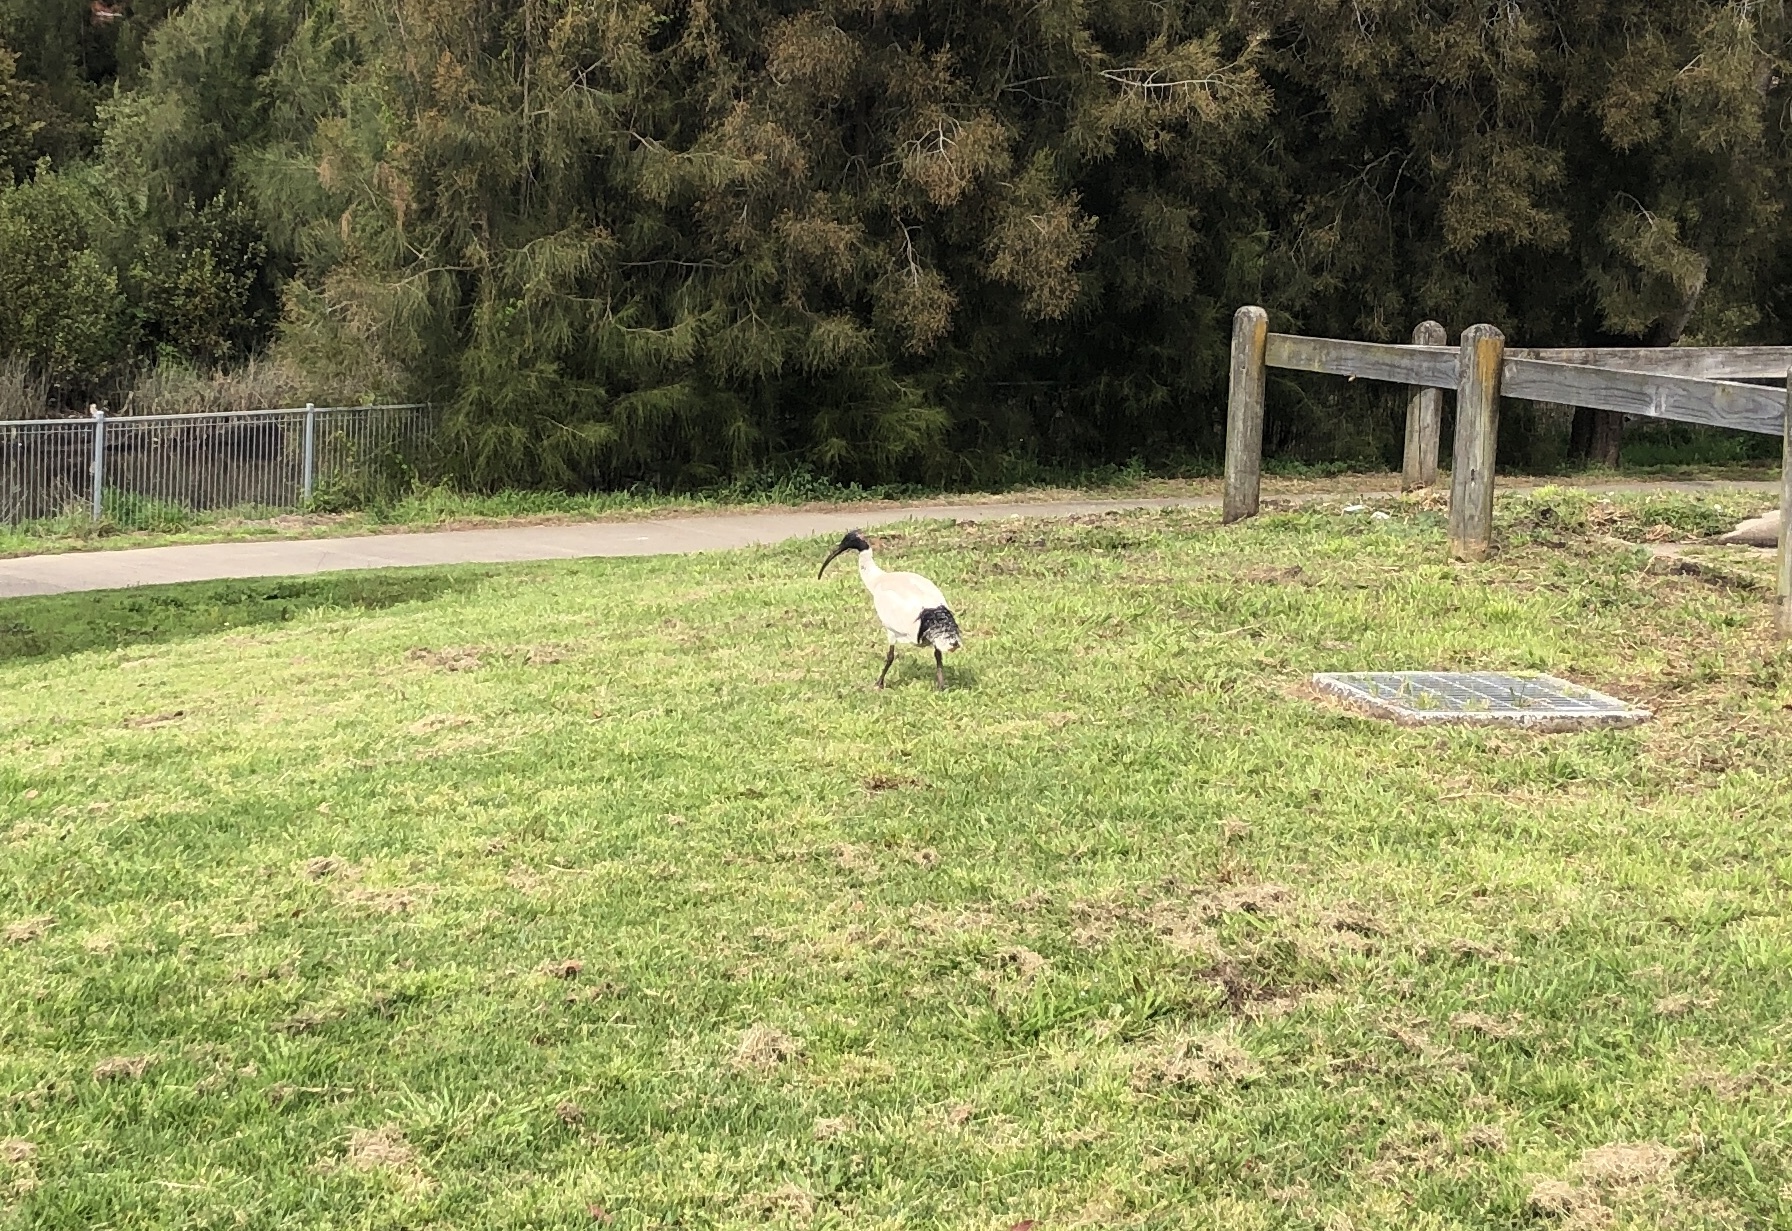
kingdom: Animalia
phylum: Chordata
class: Aves
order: Pelecaniformes
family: Threskiornithidae
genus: Threskiornis
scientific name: Threskiornis molucca
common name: Australian white ibis
